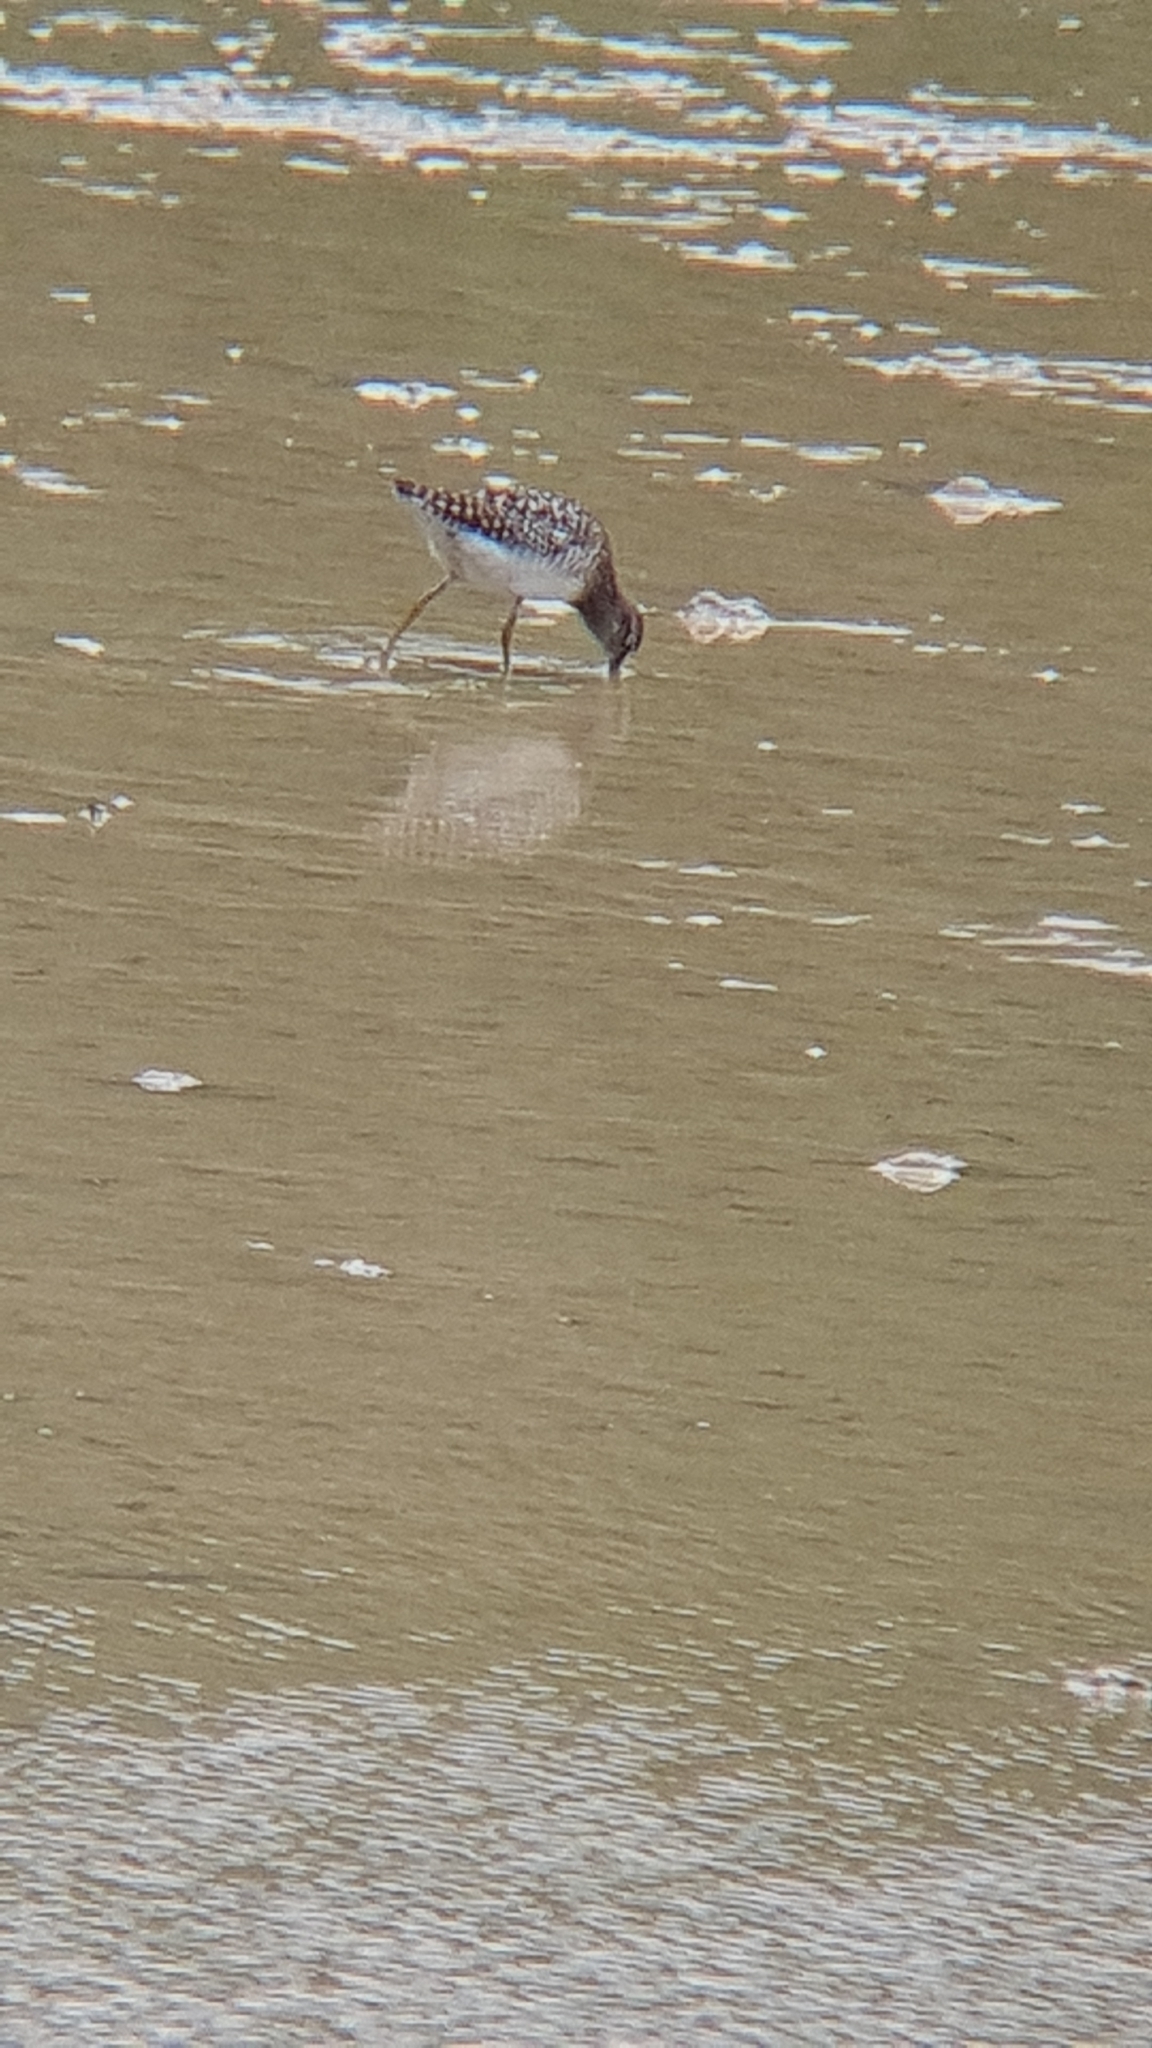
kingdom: Animalia
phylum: Chordata
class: Aves
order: Charadriiformes
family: Scolopacidae
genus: Tringa
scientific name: Tringa glareola
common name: Wood sandpiper
